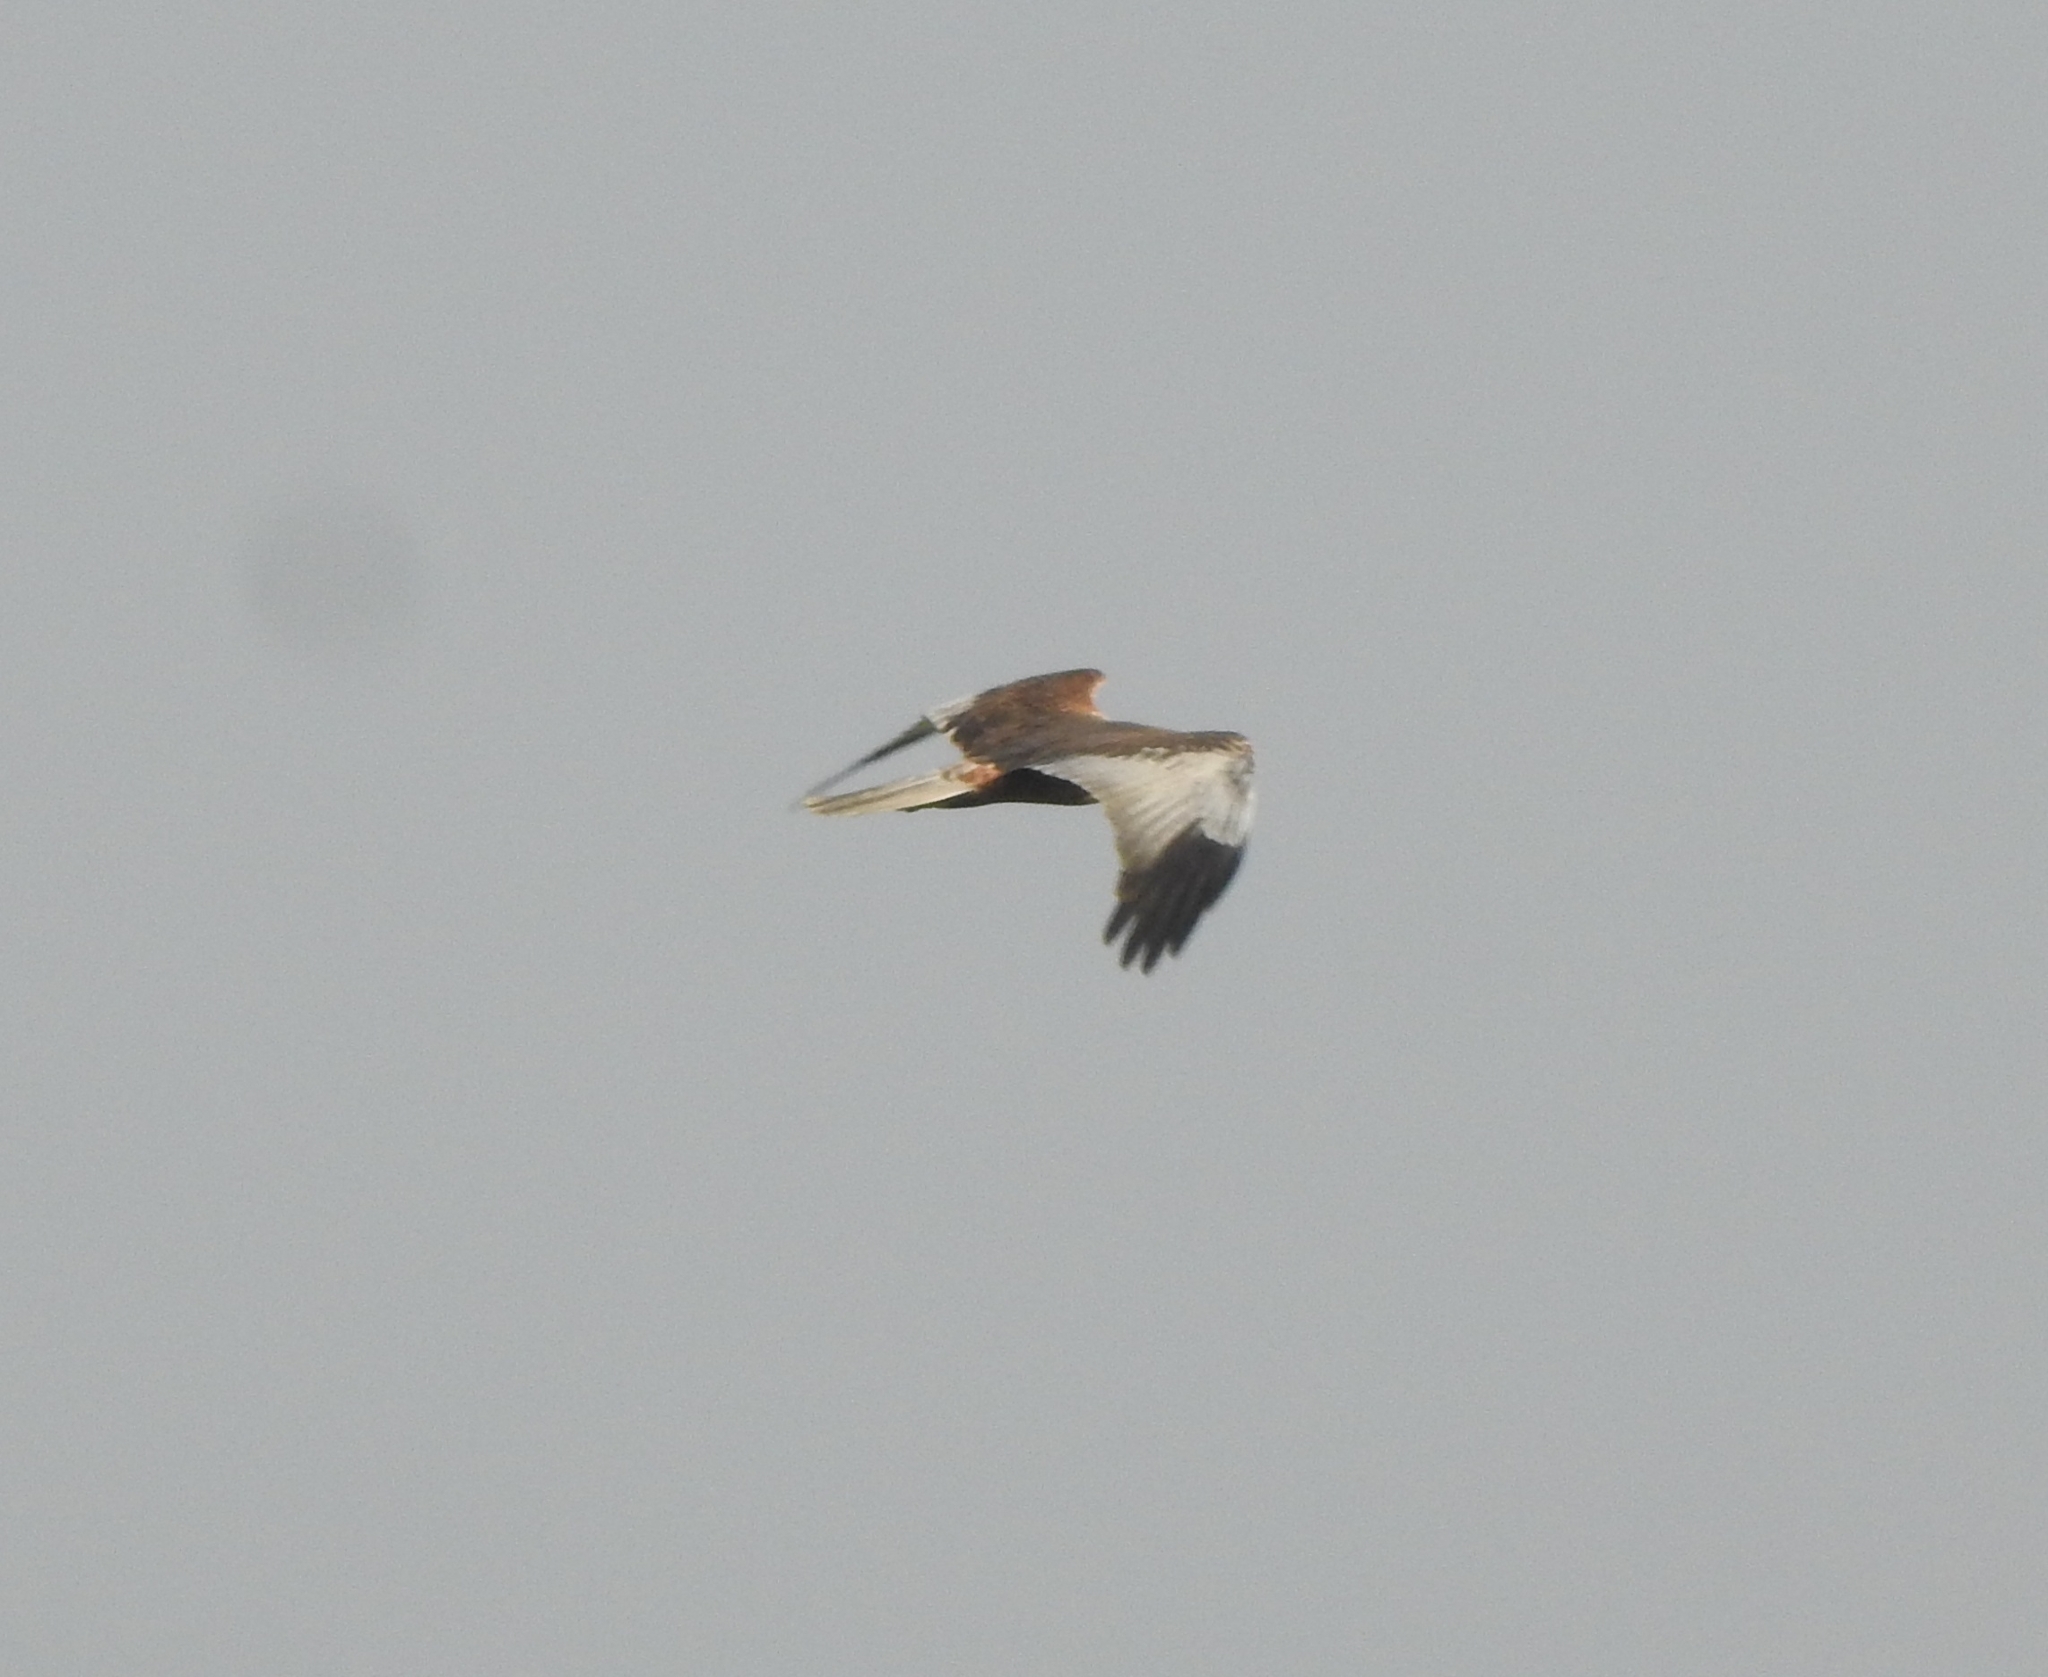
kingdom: Animalia
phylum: Chordata
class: Aves
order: Accipitriformes
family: Accipitridae
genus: Circus
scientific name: Circus aeruginosus
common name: Western marsh harrier
